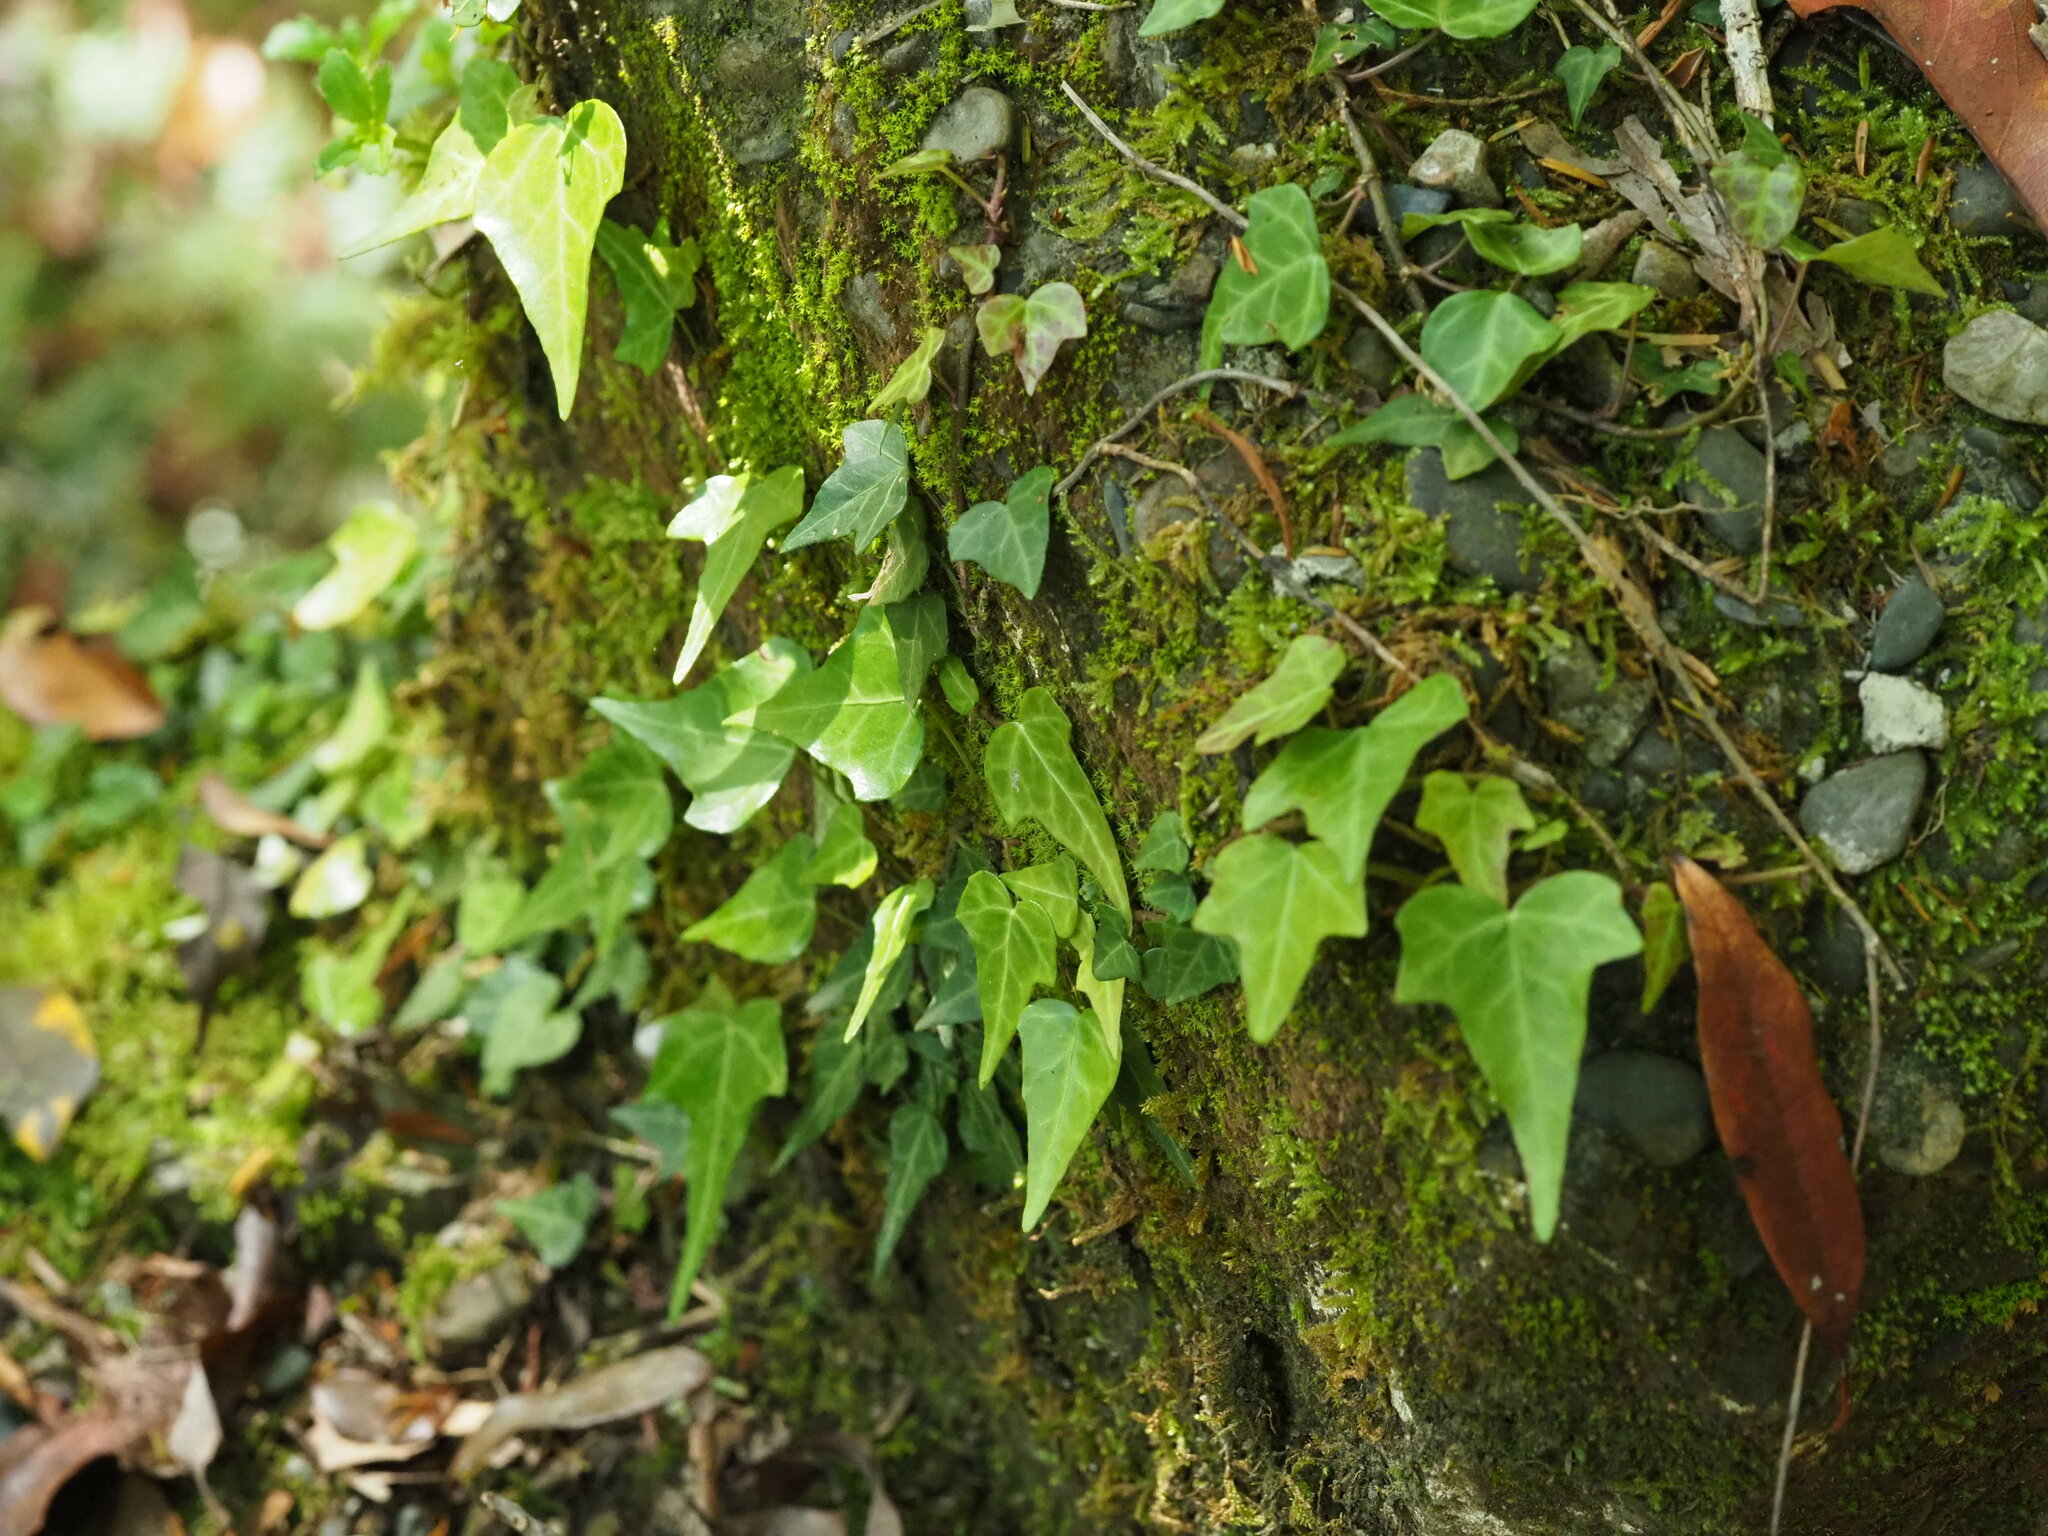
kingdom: Plantae
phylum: Tracheophyta
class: Magnoliopsida
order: Apiales
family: Araliaceae
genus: Hedera
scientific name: Hedera rhombea
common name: Japanese ivy
